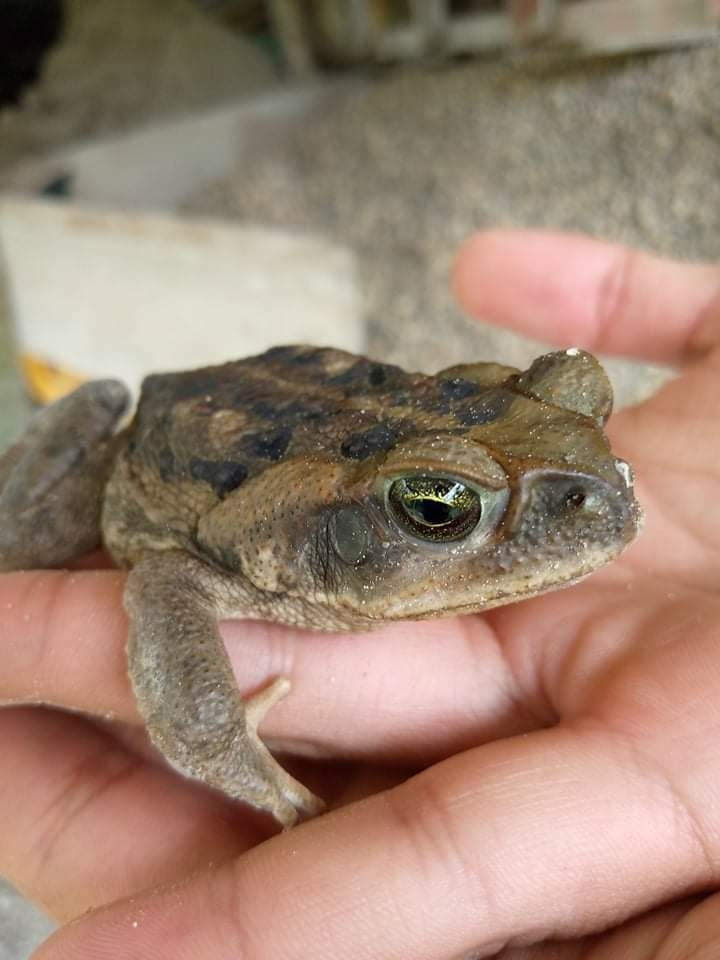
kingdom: Animalia
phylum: Chordata
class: Amphibia
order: Anura
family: Bufonidae
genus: Rhinella
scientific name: Rhinella horribilis
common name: Mesoamerican cane toad
